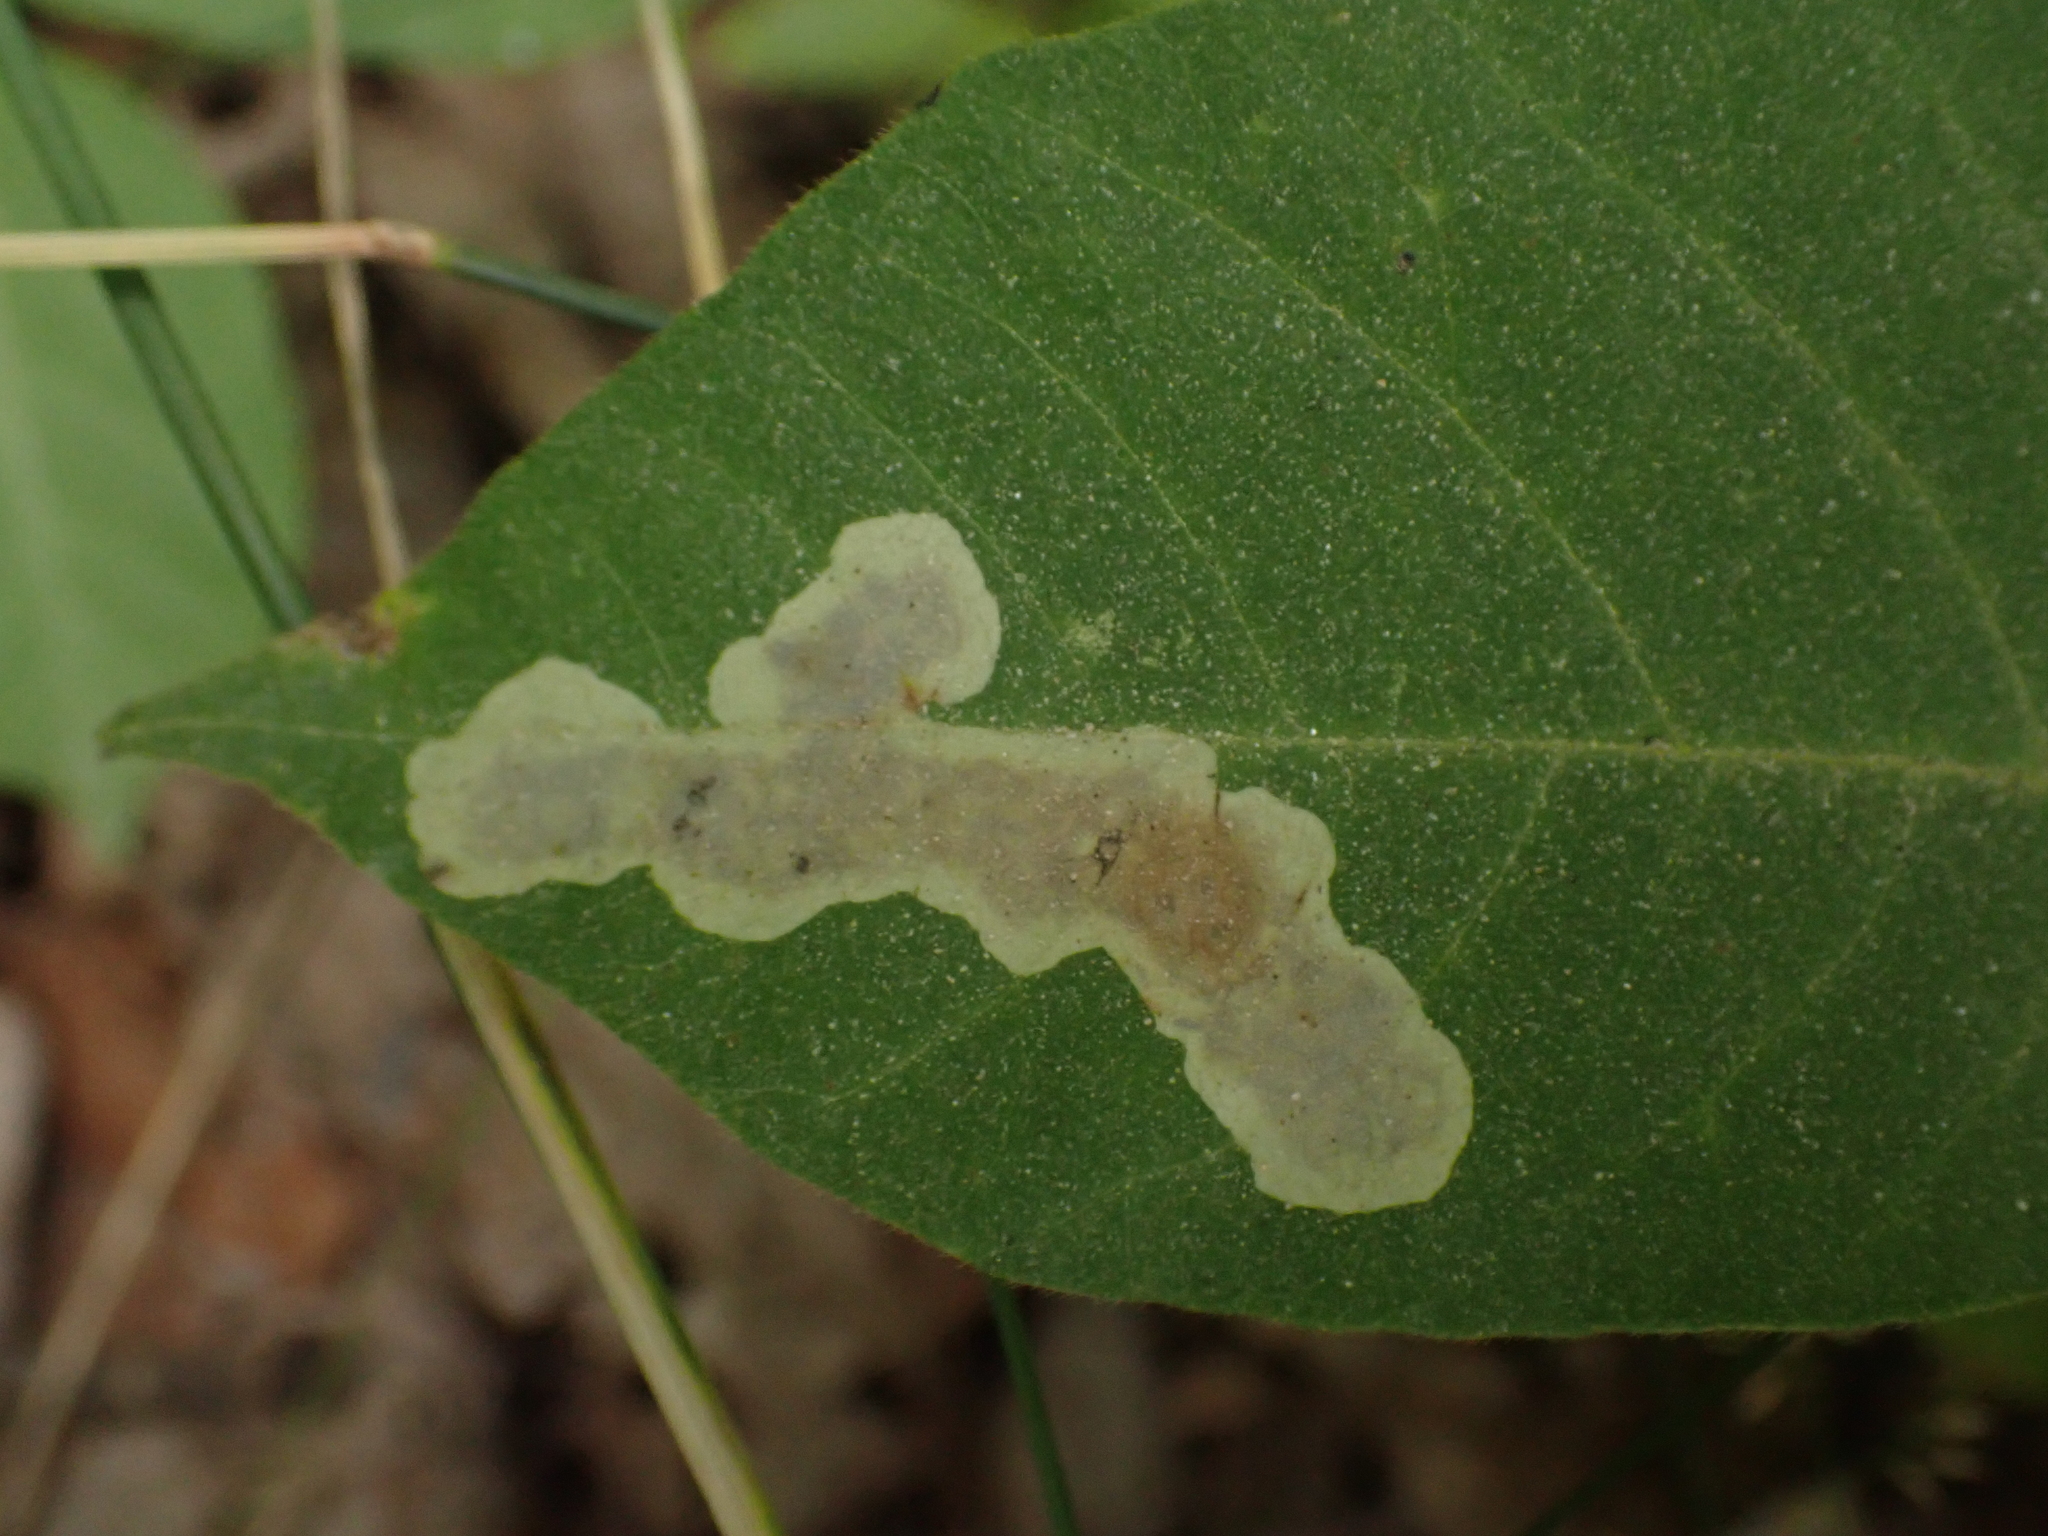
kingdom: Animalia
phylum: Arthropoda
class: Insecta
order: Lepidoptera
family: Gracillariidae
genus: Cameraria
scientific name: Cameraria guttifinitella
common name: Poison ivy leaf-miner moth
